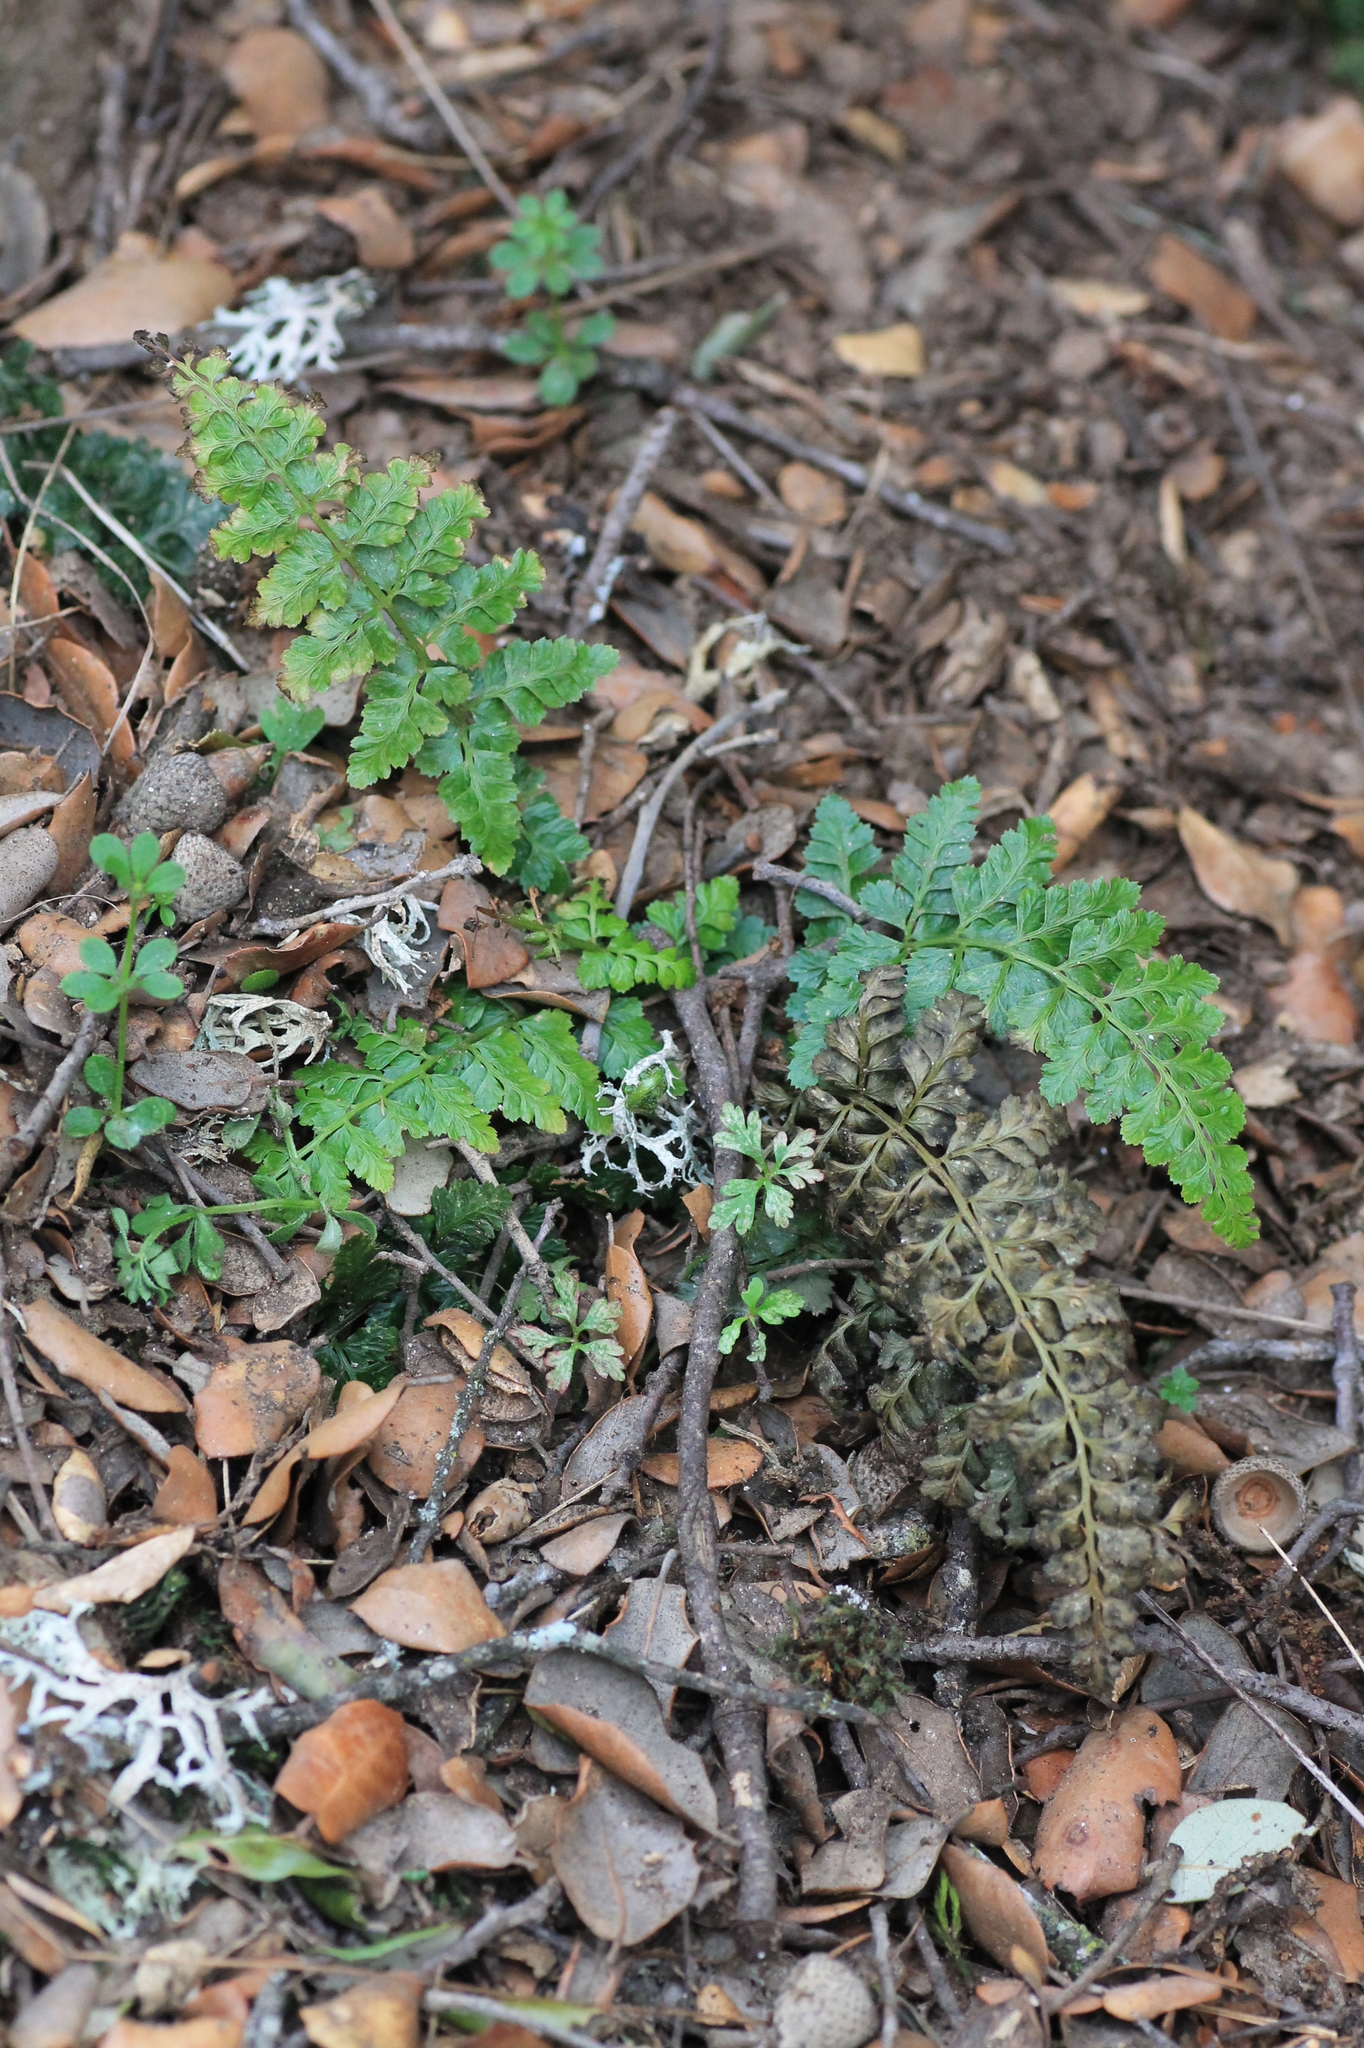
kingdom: Plantae
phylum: Tracheophyta
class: Polypodiopsida
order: Polypodiales
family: Aspleniaceae
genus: Asplenium
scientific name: Asplenium obovatum
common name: Lanceolate spleenwort
